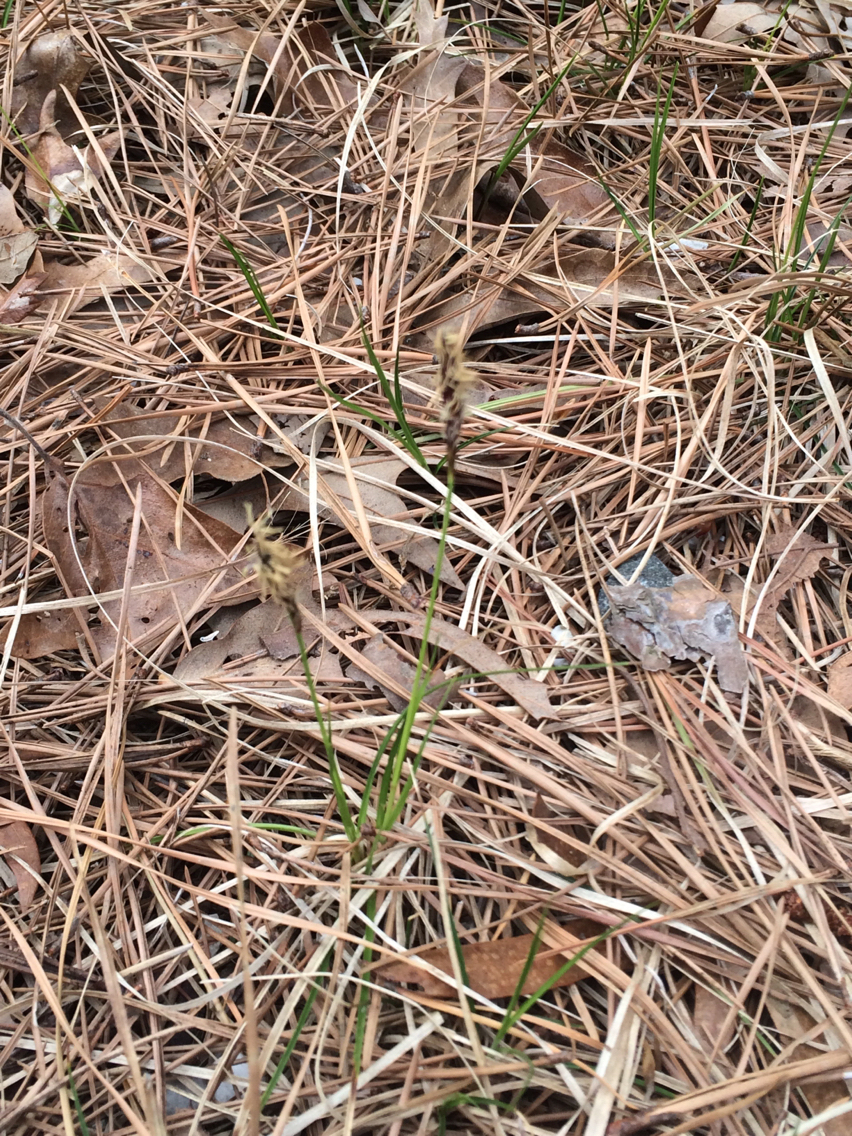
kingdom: Plantae
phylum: Tracheophyta
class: Liliopsida
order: Poales
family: Cyperaceae
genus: Carex
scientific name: Carex pensylvanica
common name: Common oak sedge
